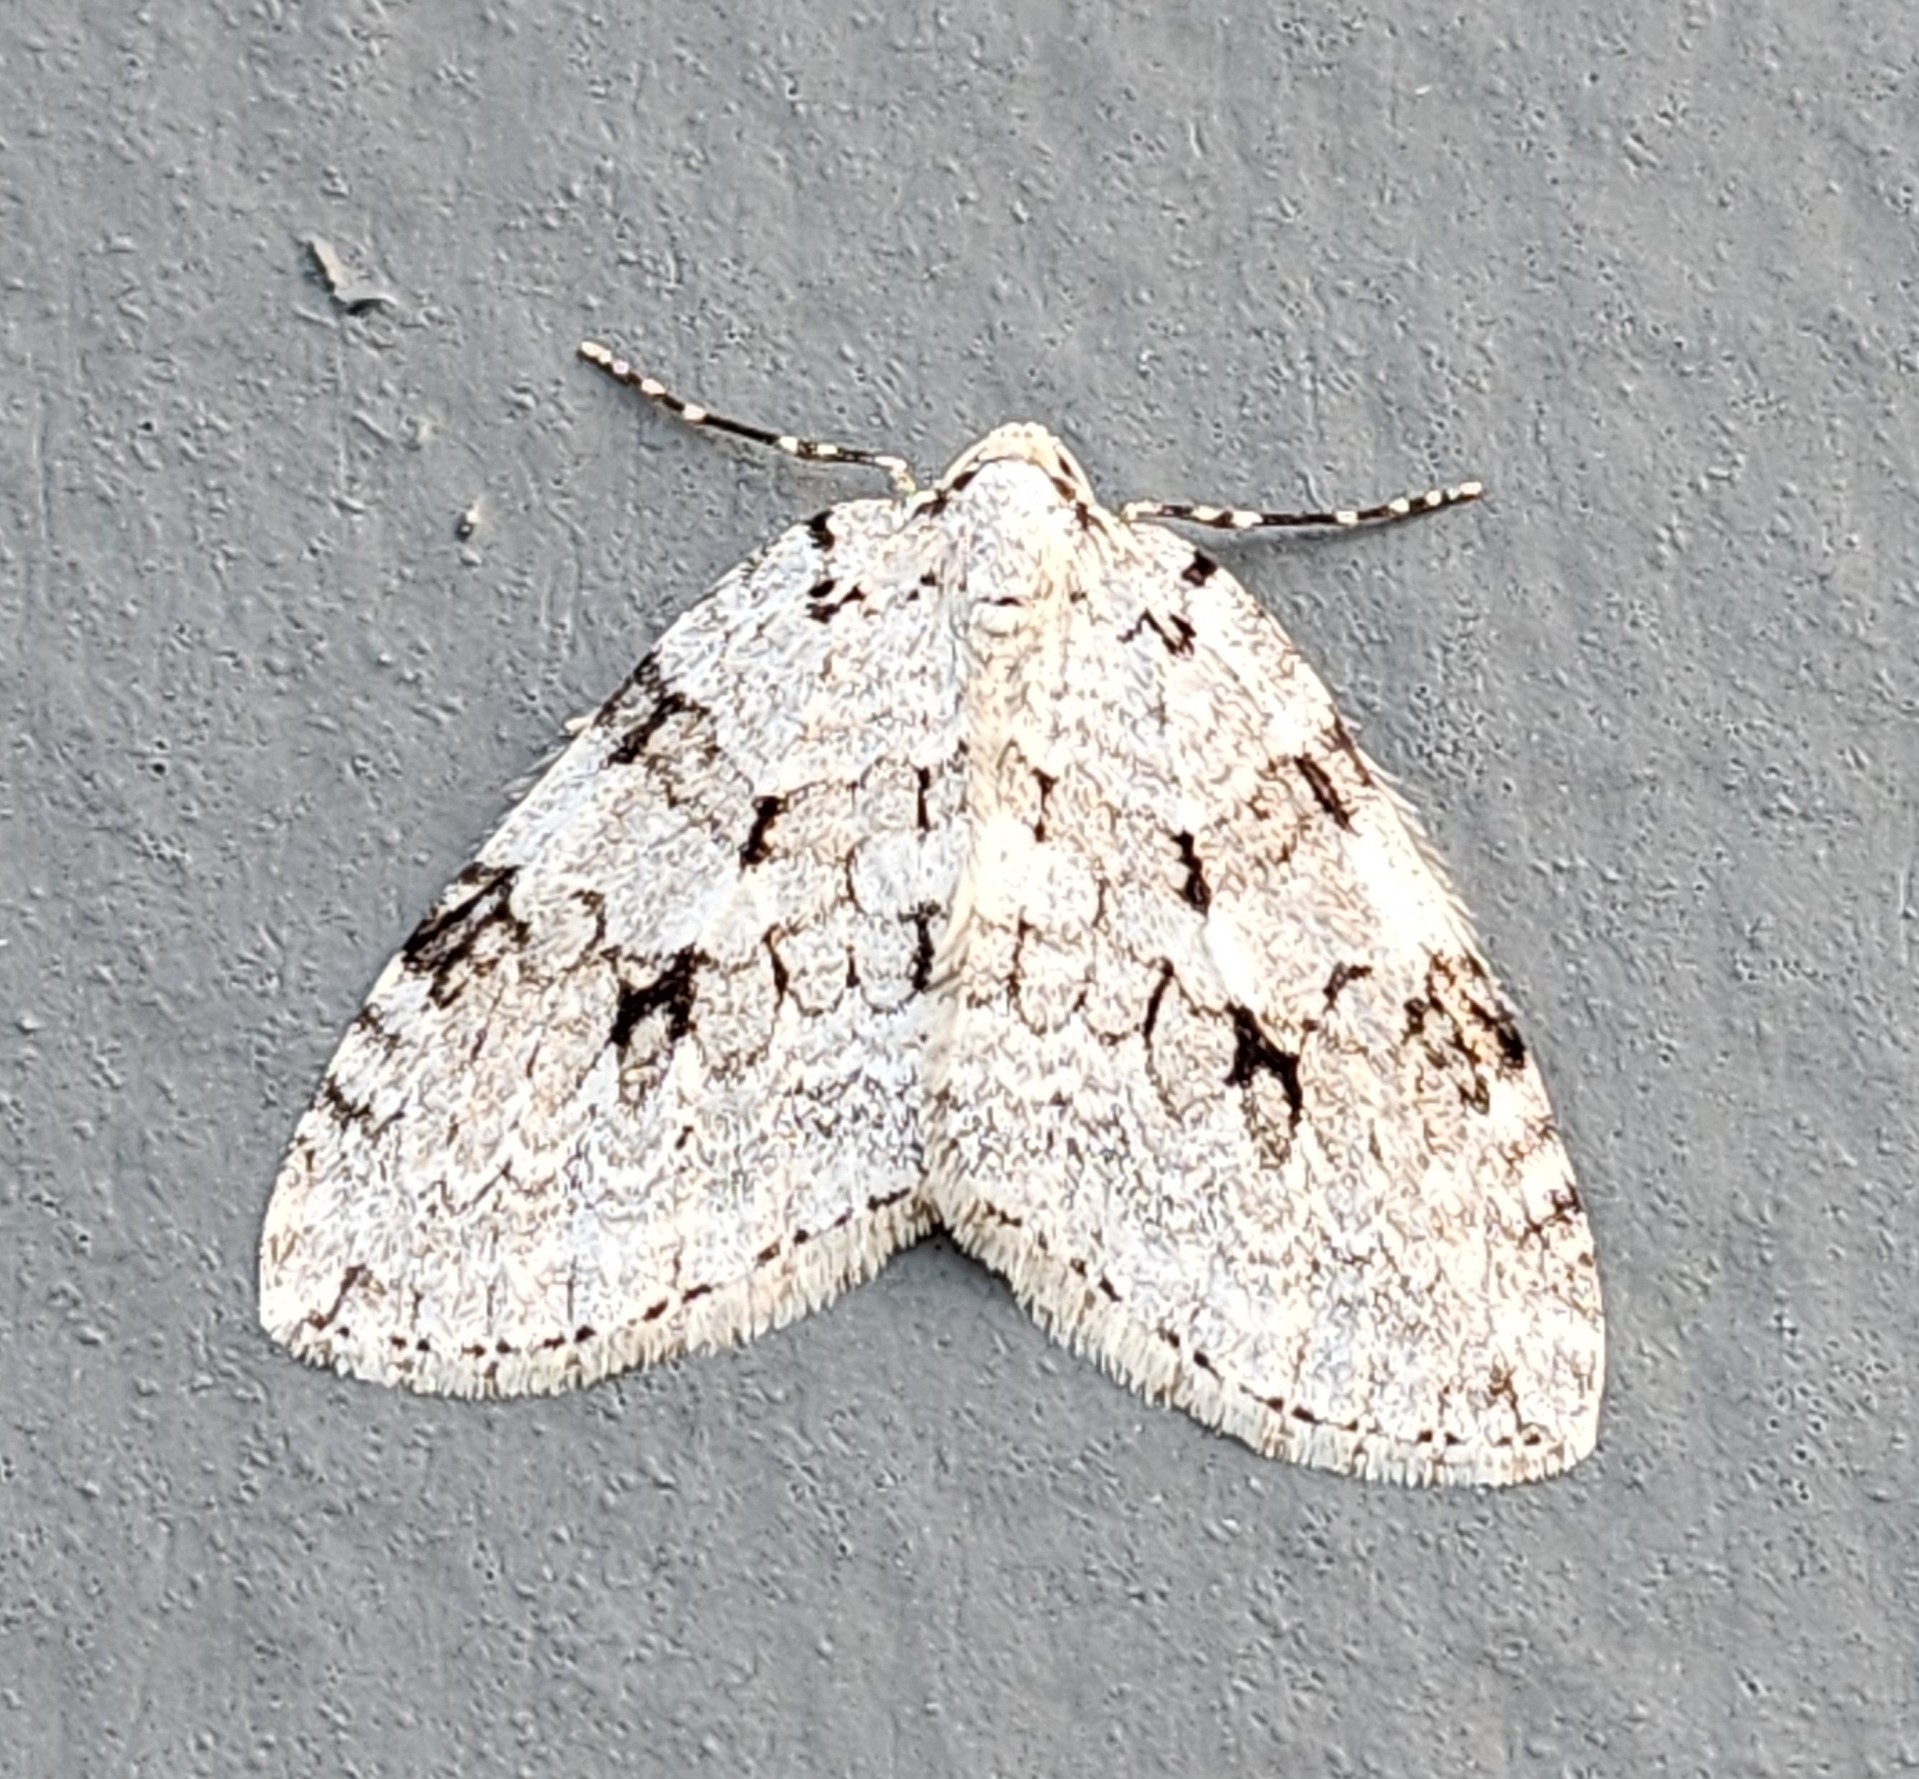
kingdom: Animalia
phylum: Arthropoda
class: Insecta
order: Lepidoptera
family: Geometridae
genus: Epirrita
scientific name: Epirrita autumnata
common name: Autumnal moth
